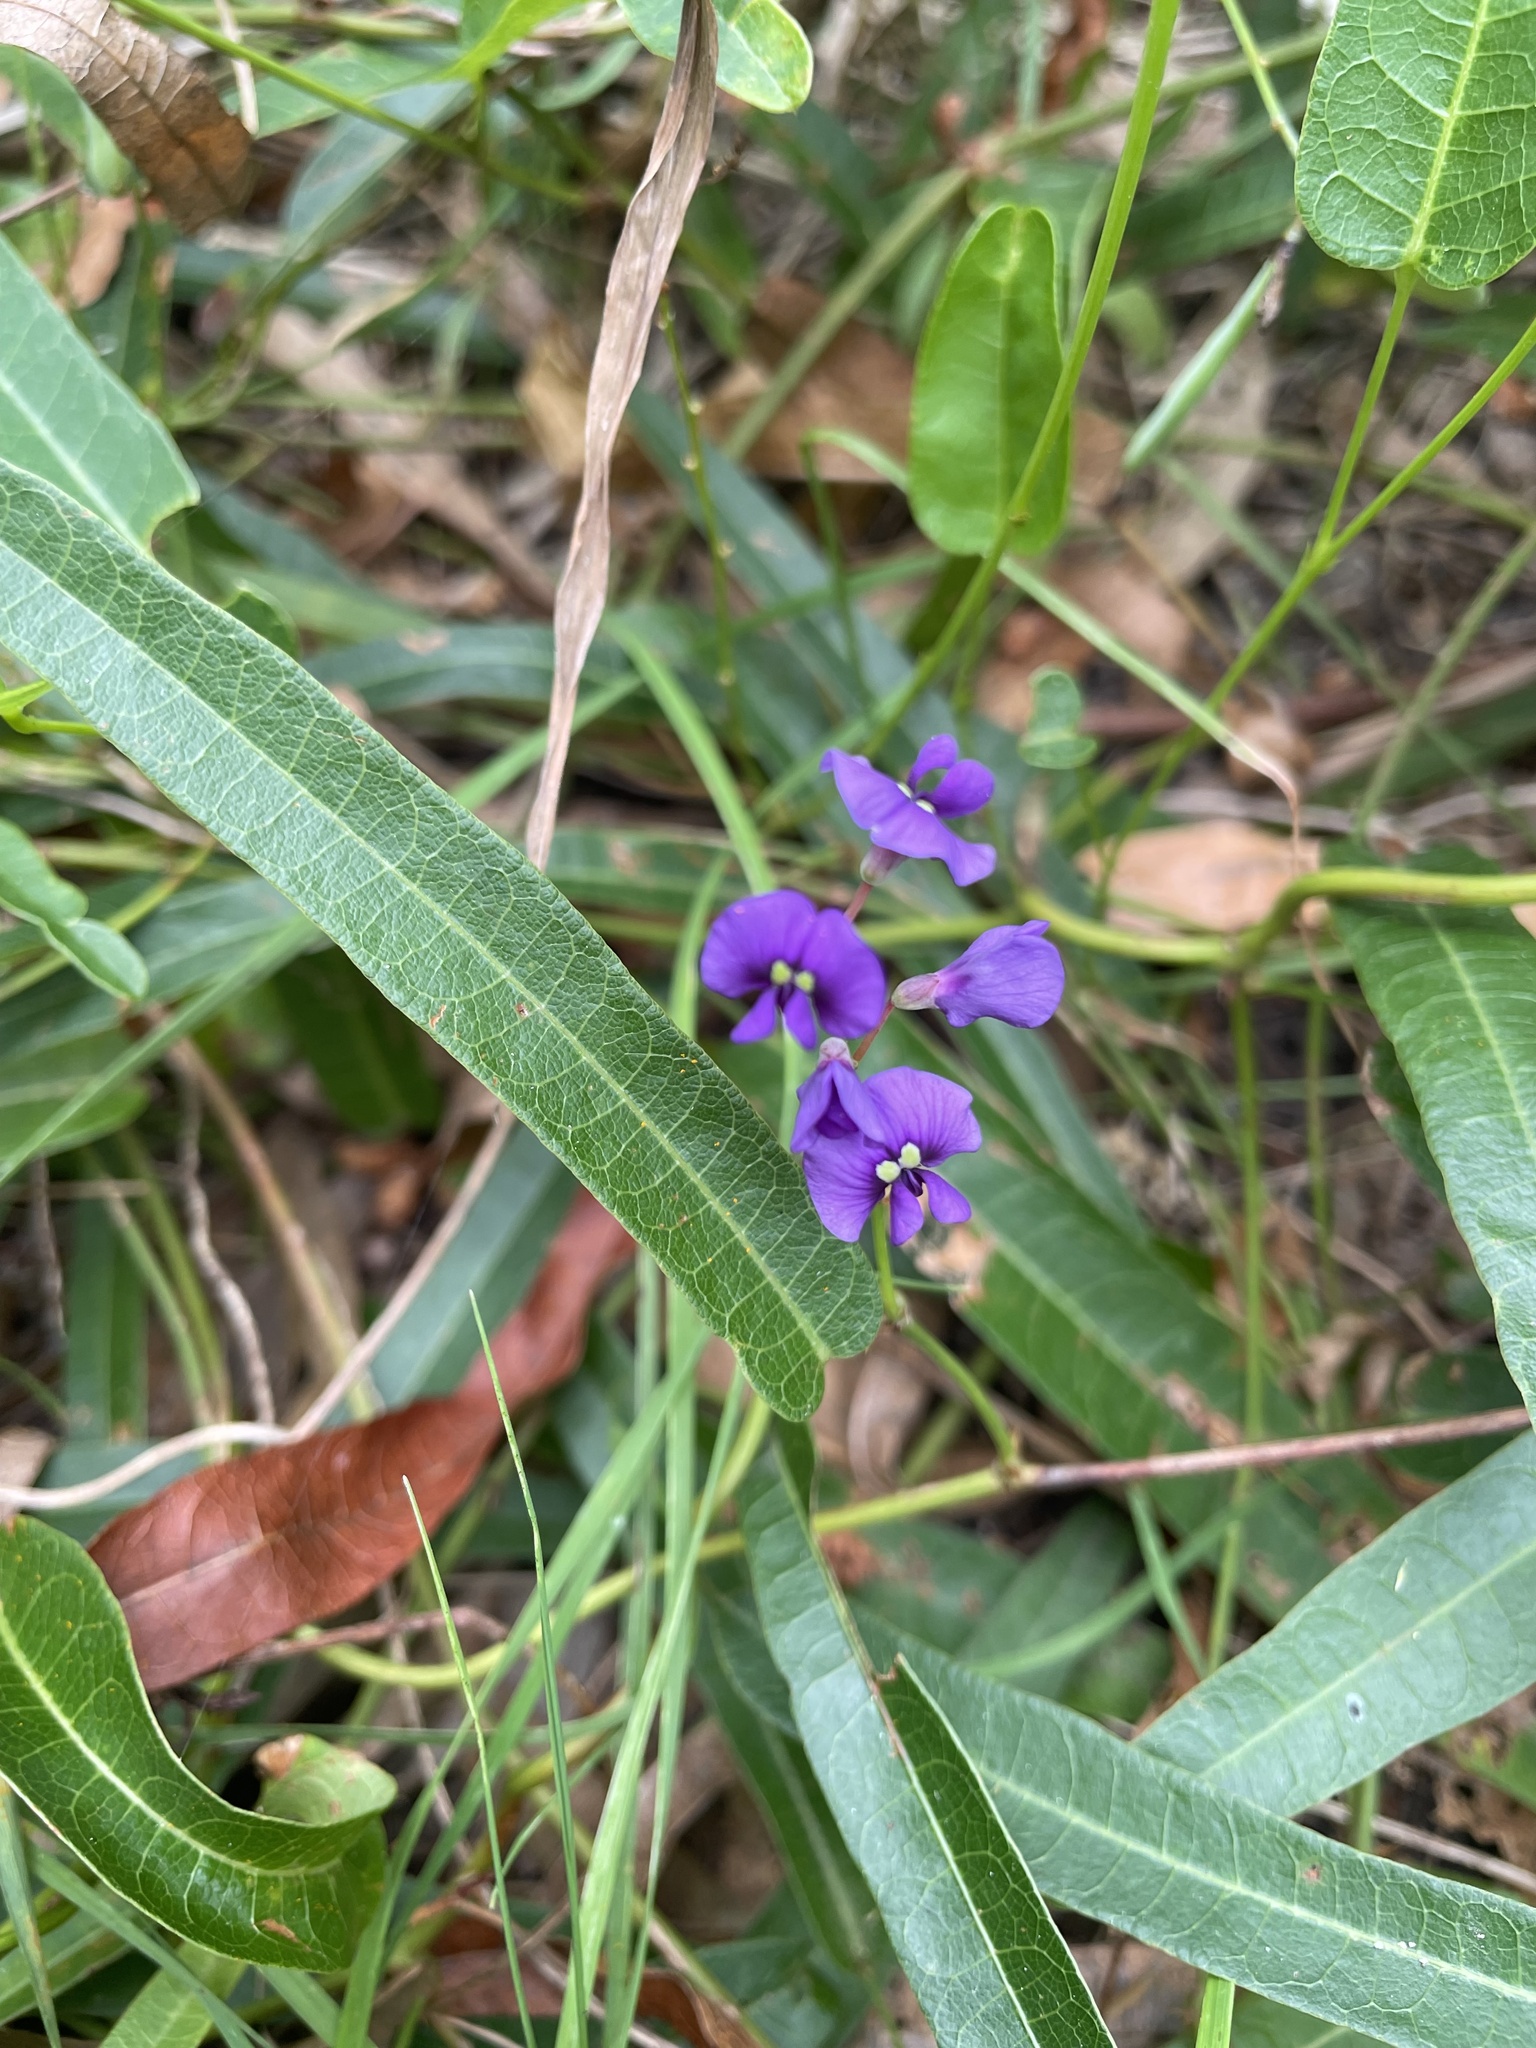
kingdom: Plantae
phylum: Tracheophyta
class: Magnoliopsida
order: Fabales
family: Fabaceae
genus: Hardenbergia
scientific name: Hardenbergia violacea
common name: Coral-pea
